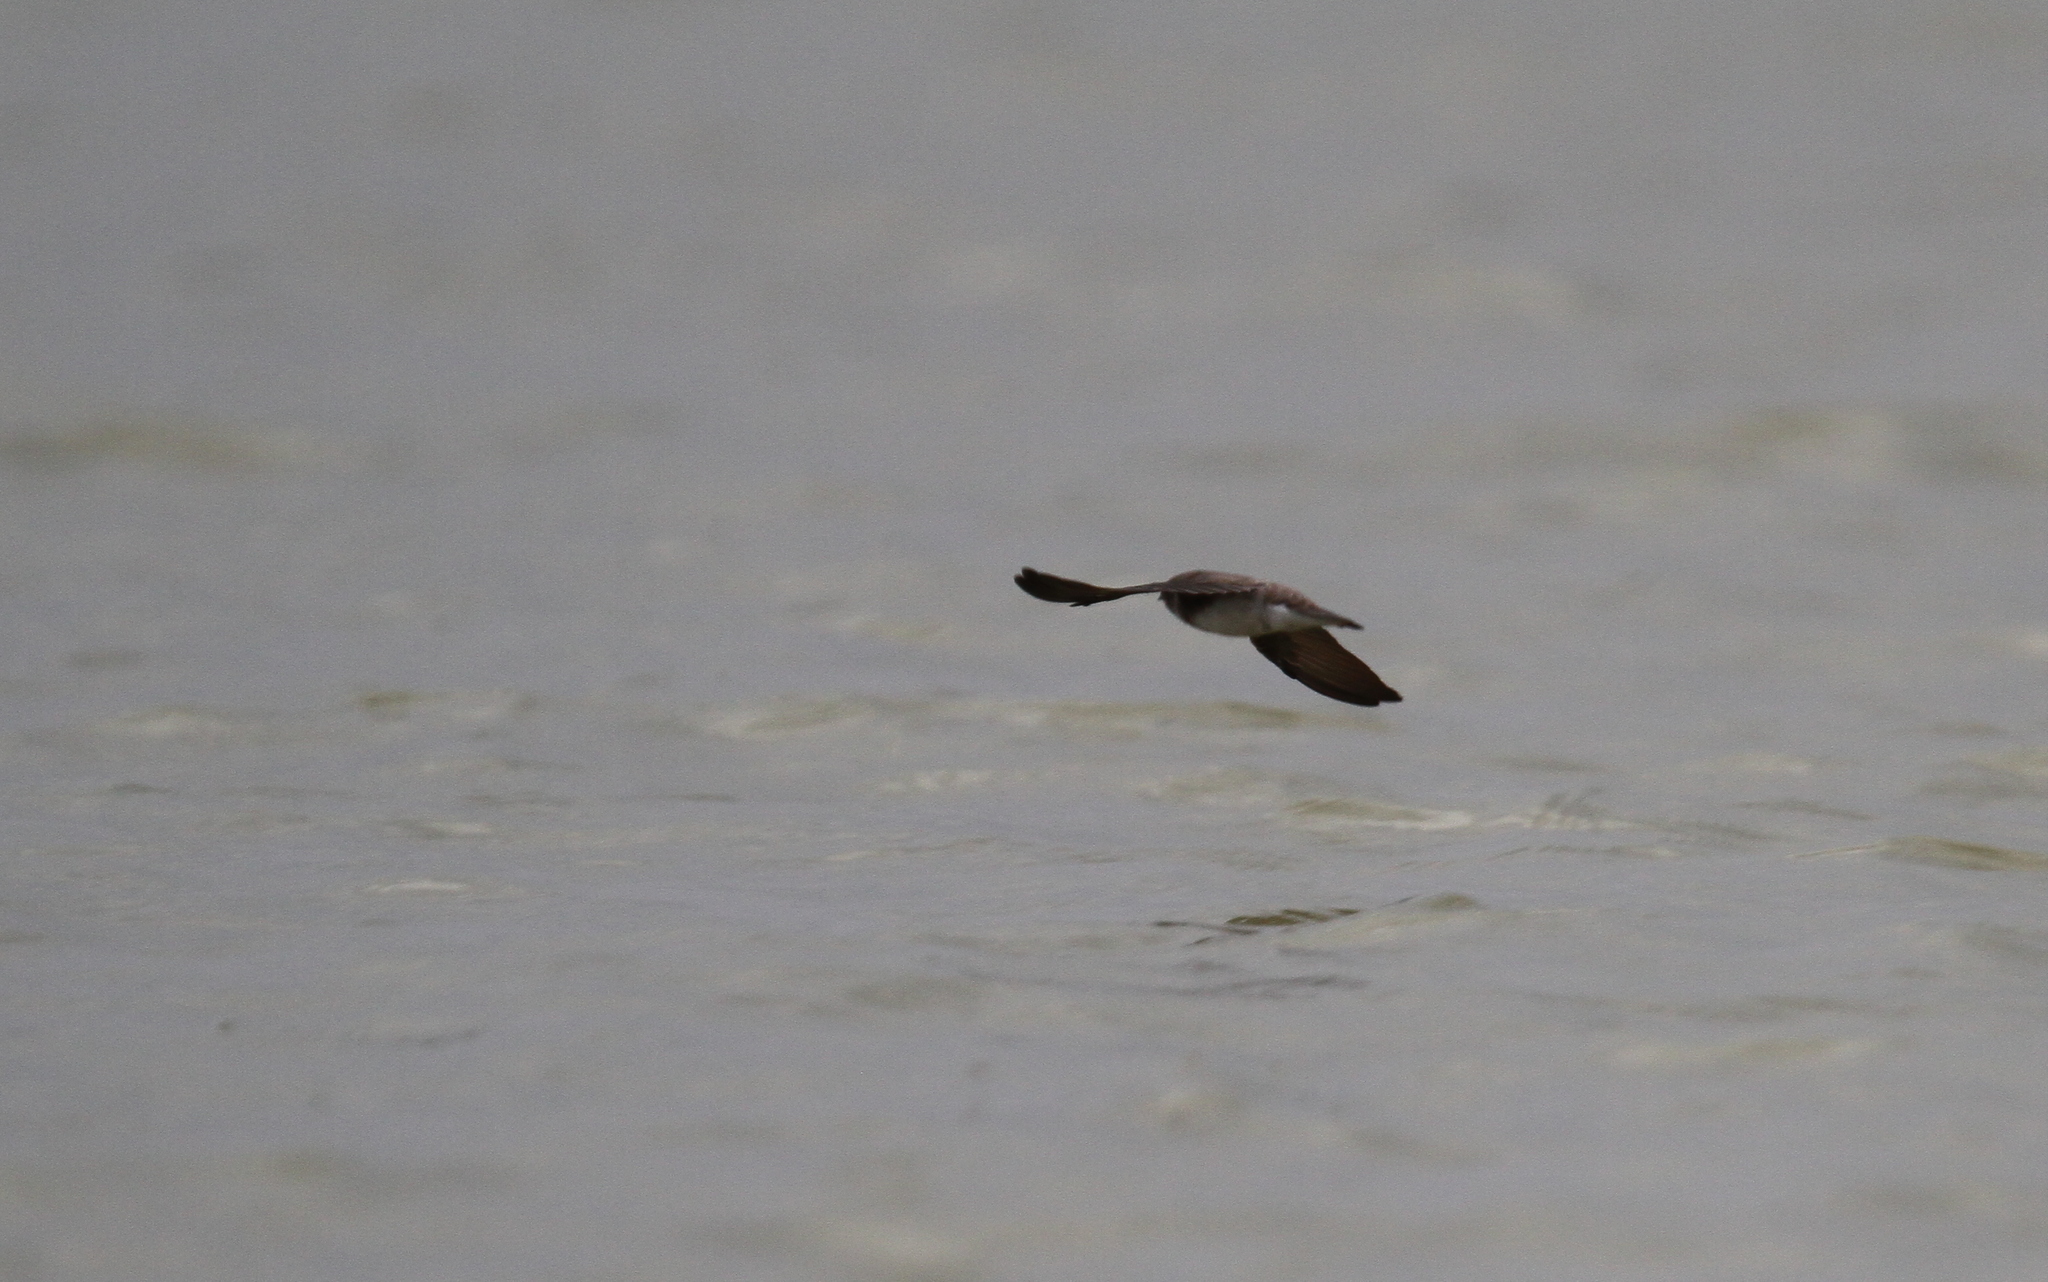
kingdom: Animalia
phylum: Chordata
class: Aves
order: Passeriformes
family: Hirundinidae
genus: Riparia
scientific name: Riparia chinensis
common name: Gray-throated martin
